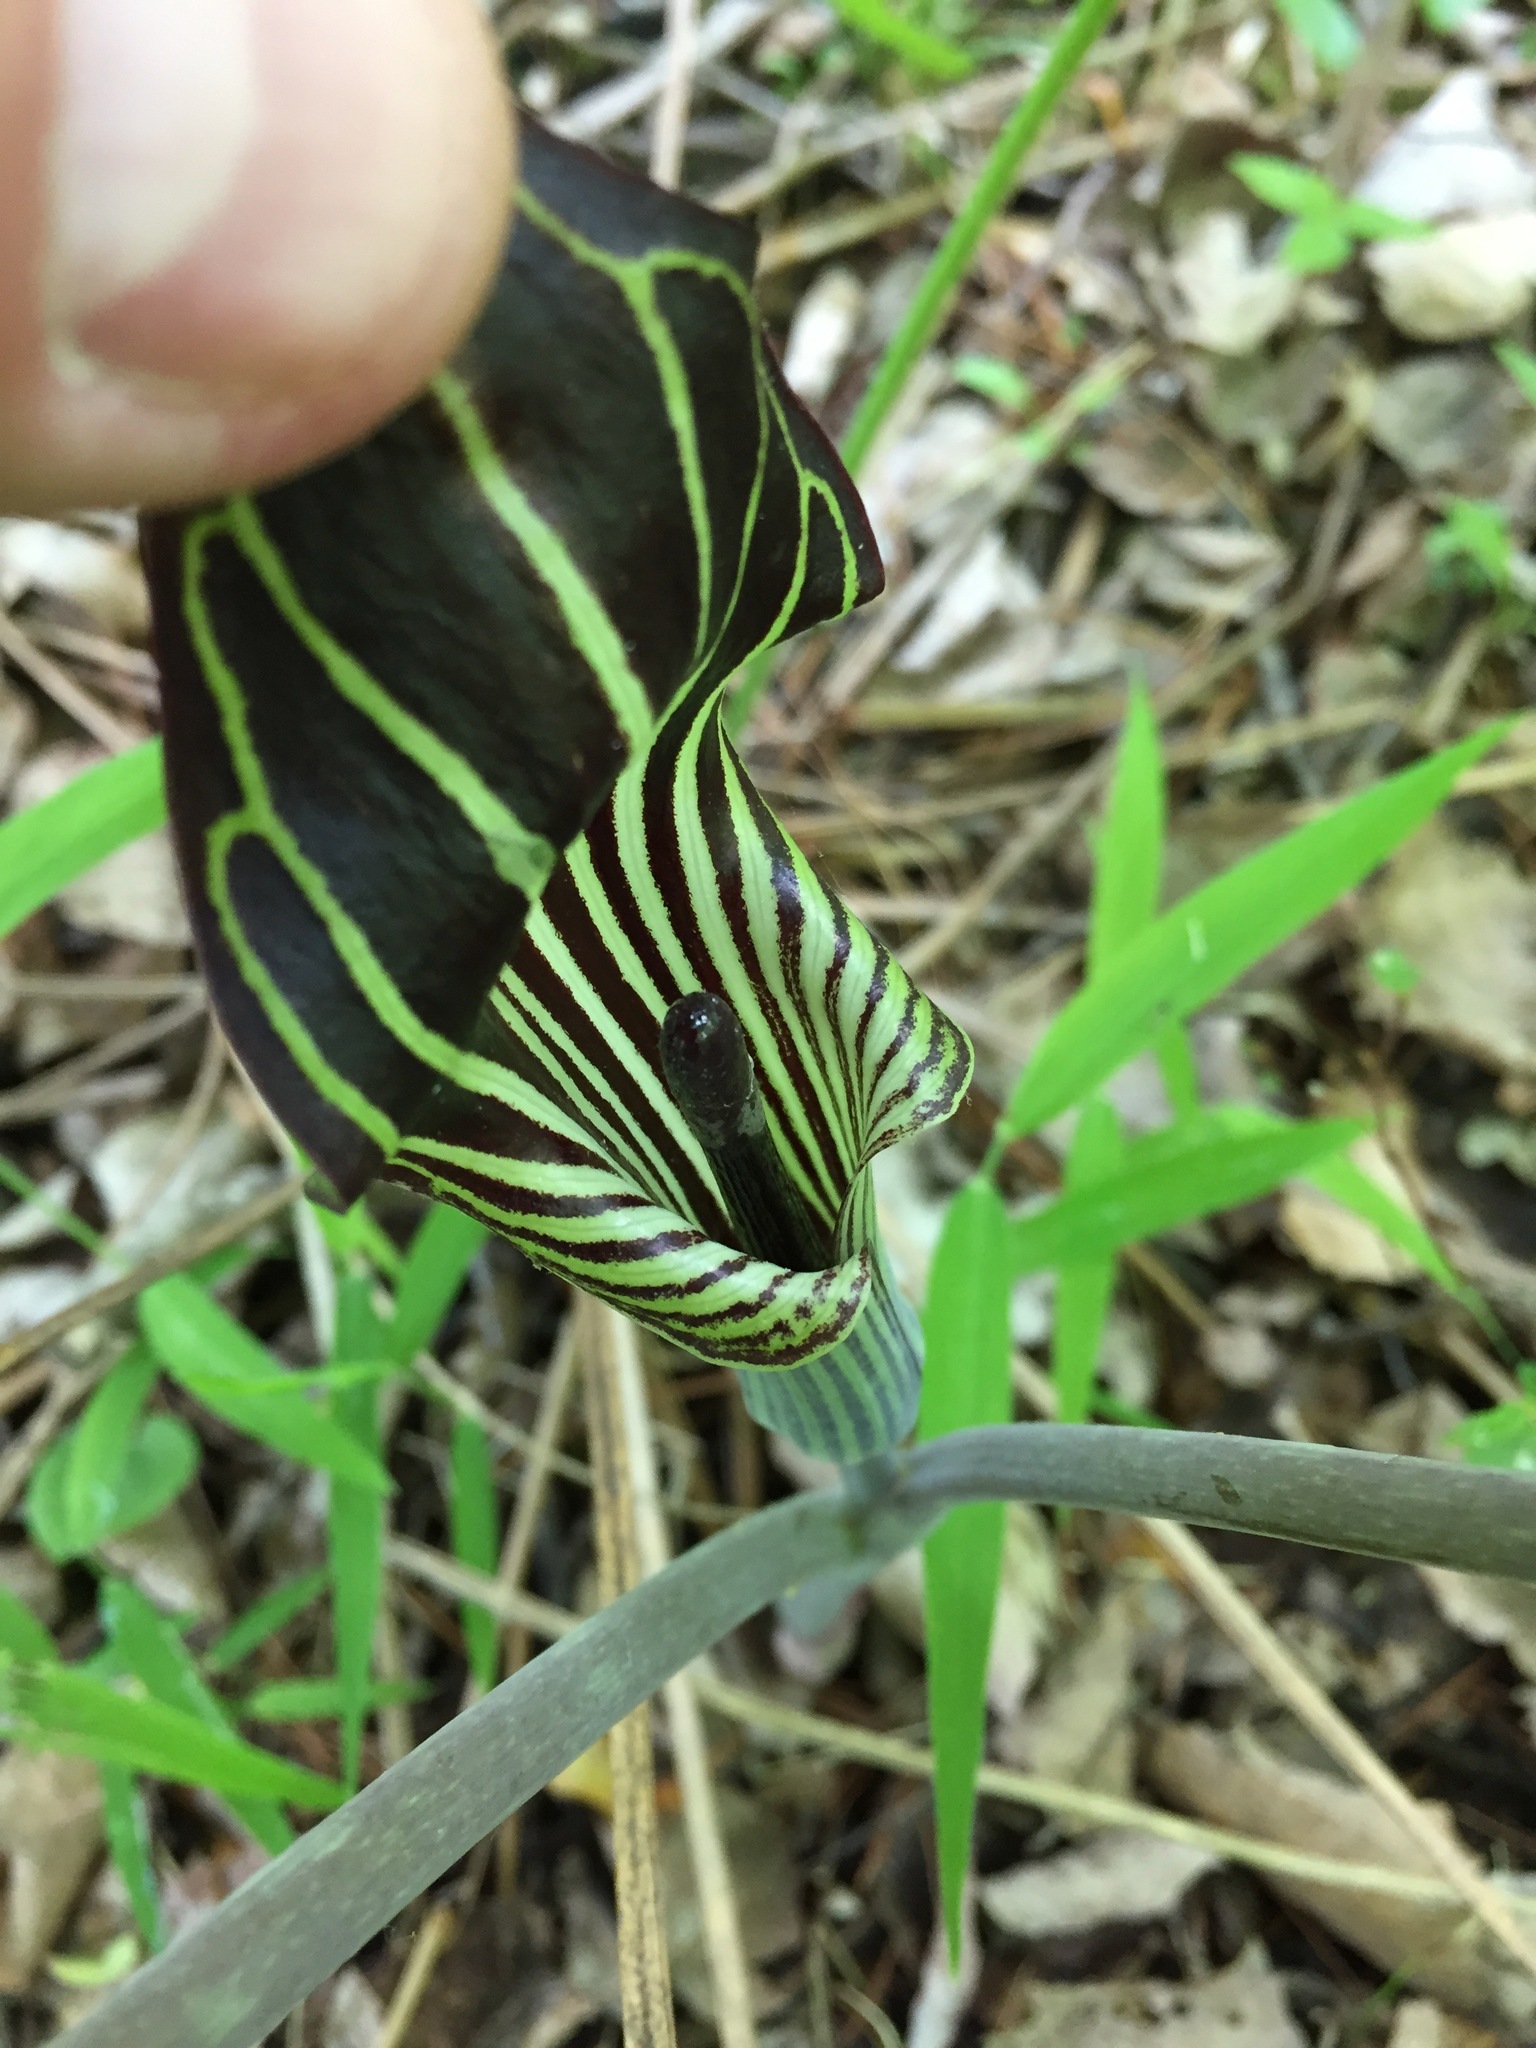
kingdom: Plantae
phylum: Tracheophyta
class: Liliopsida
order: Alismatales
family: Araceae
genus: Arisaema
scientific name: Arisaema triphyllum
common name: Jack-in-the-pulpit
